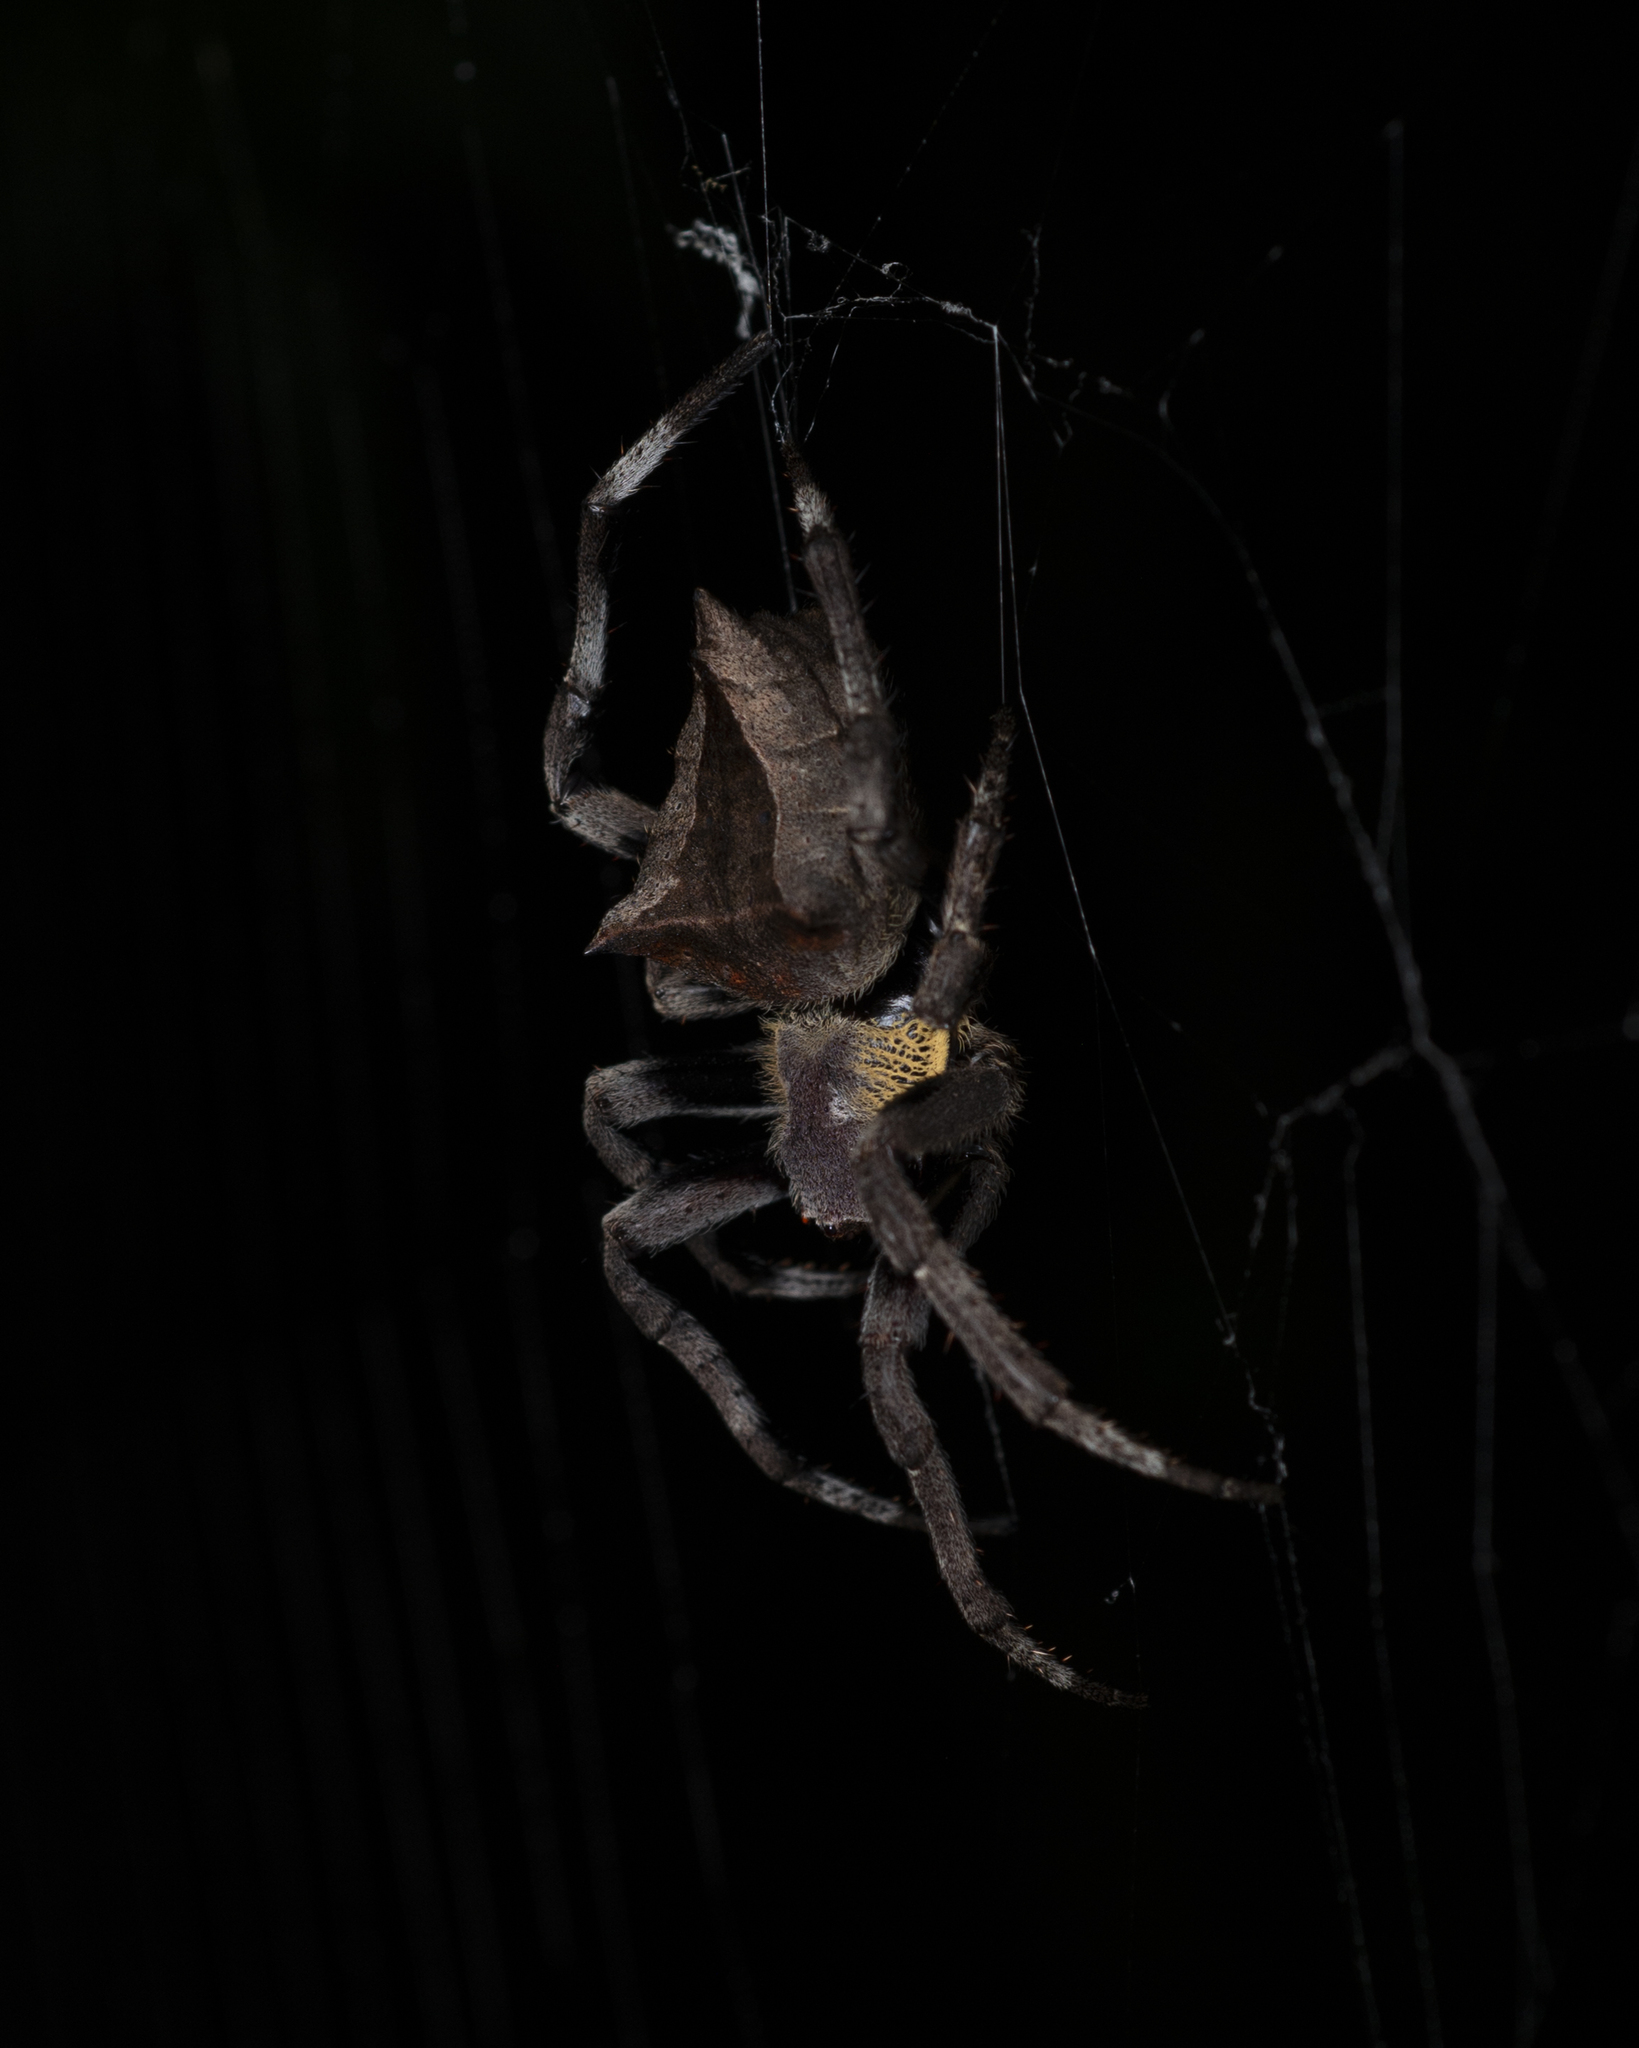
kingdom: Animalia
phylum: Arthropoda
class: Arachnida
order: Araneae
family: Araneidae
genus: Parawixia
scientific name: Parawixia dehaani
